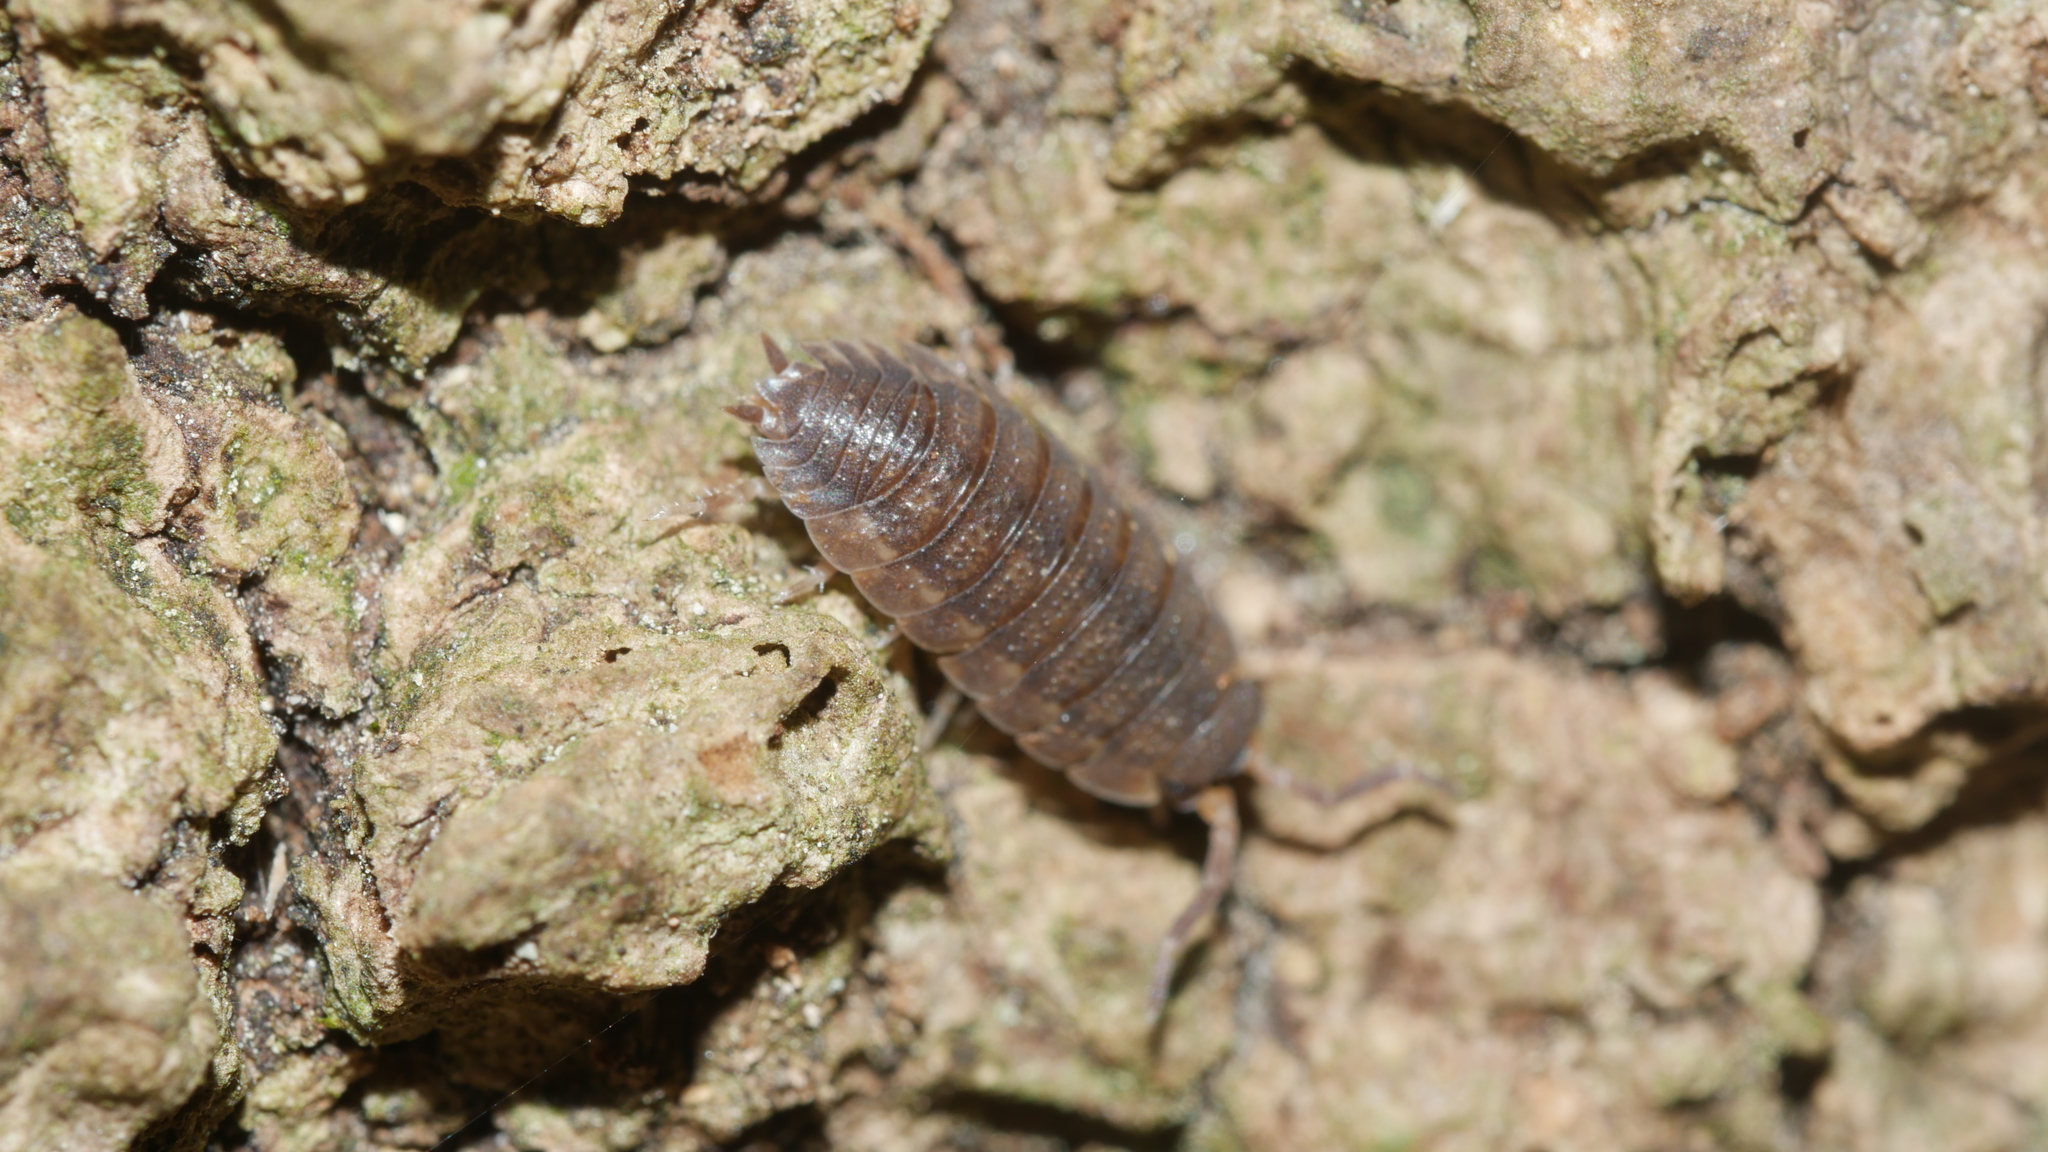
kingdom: Animalia
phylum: Arthropoda
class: Malacostraca
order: Isopoda
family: Porcellionidae
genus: Porcellio
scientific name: Porcellio scaber
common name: Common rough woodlouse
